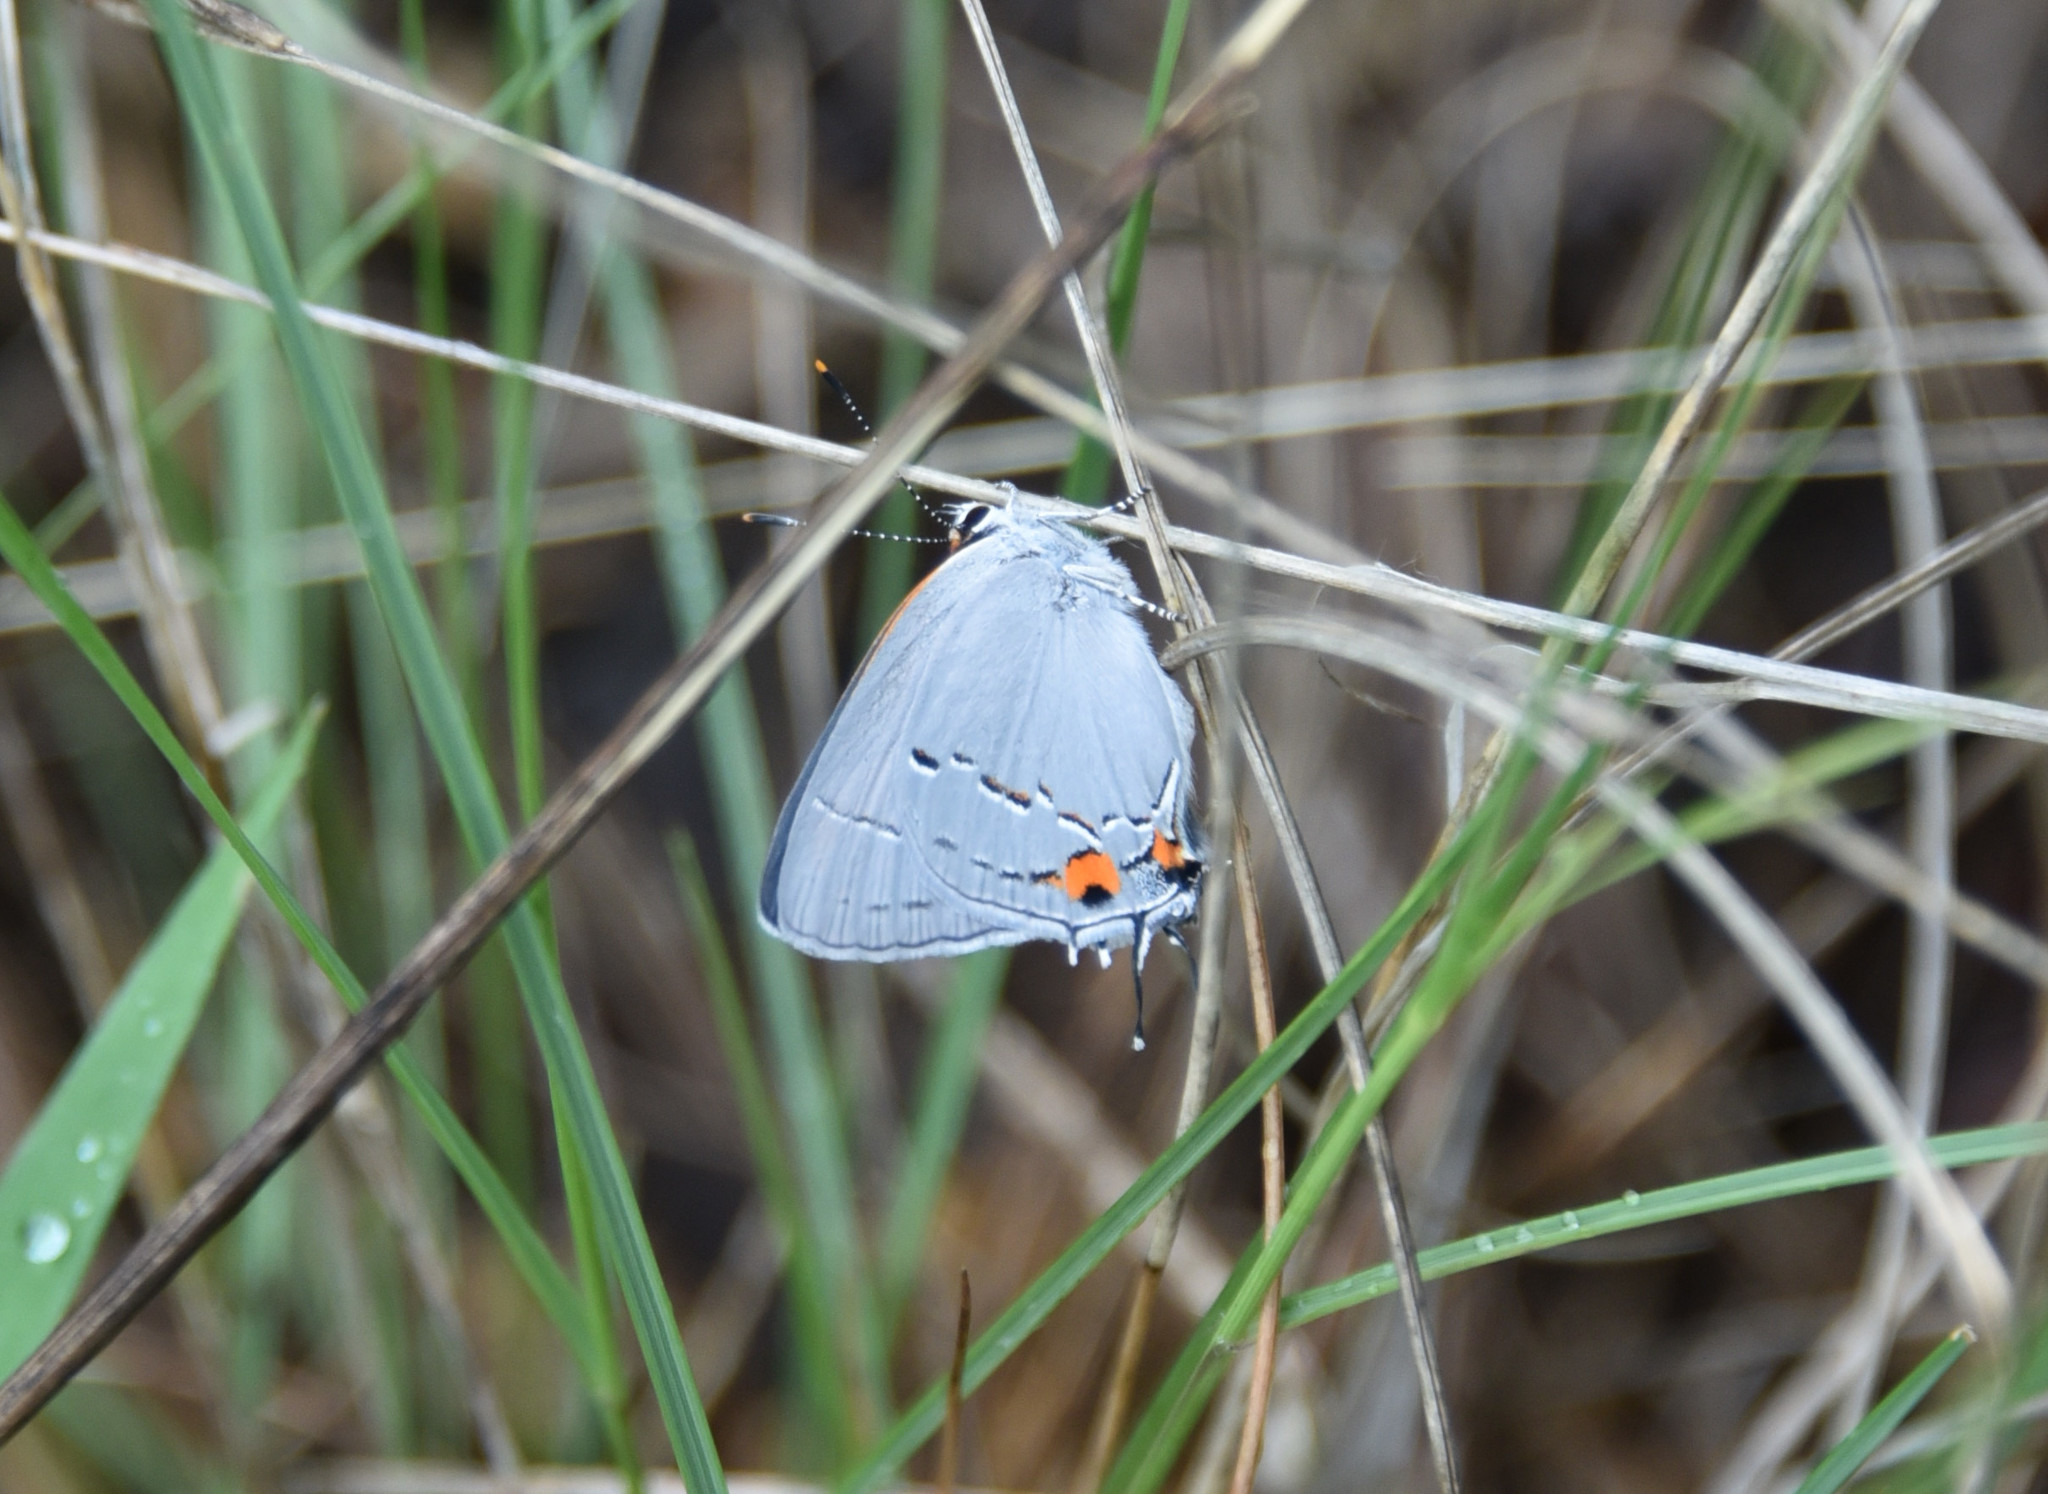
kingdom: Animalia
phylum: Arthropoda
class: Insecta
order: Lepidoptera
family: Lycaenidae
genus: Strymon
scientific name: Strymon melinus
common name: Gray hairstreak
